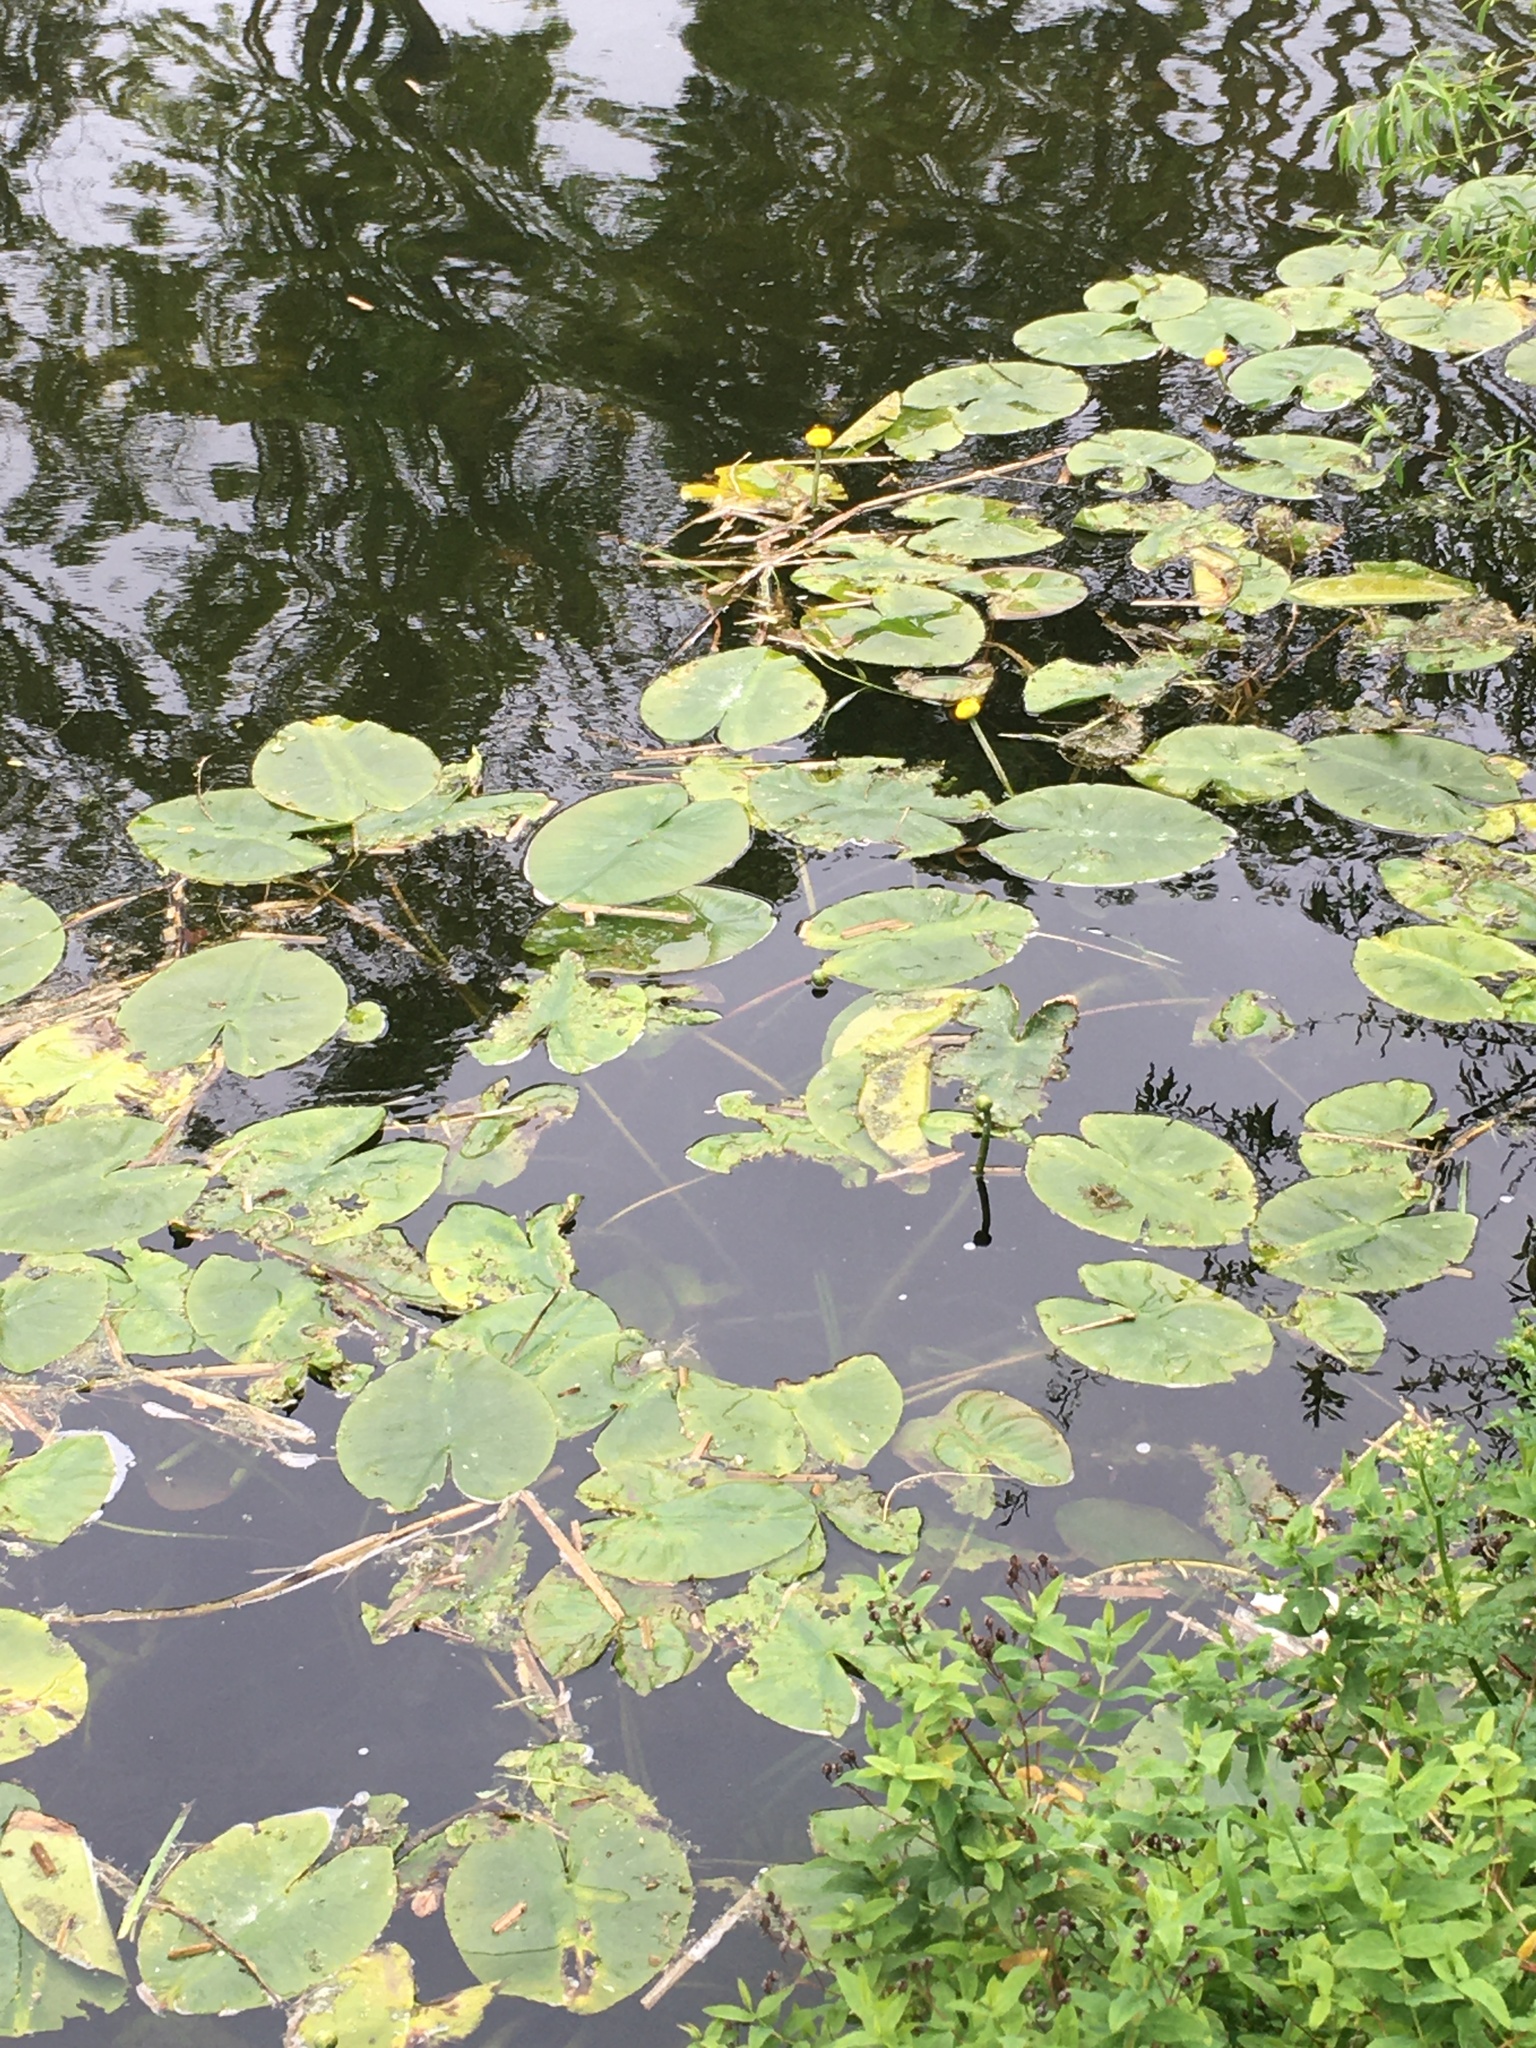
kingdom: Plantae
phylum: Tracheophyta
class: Magnoliopsida
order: Nymphaeales
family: Nymphaeaceae
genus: Nuphar
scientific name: Nuphar lutea
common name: Yellow water-lily
